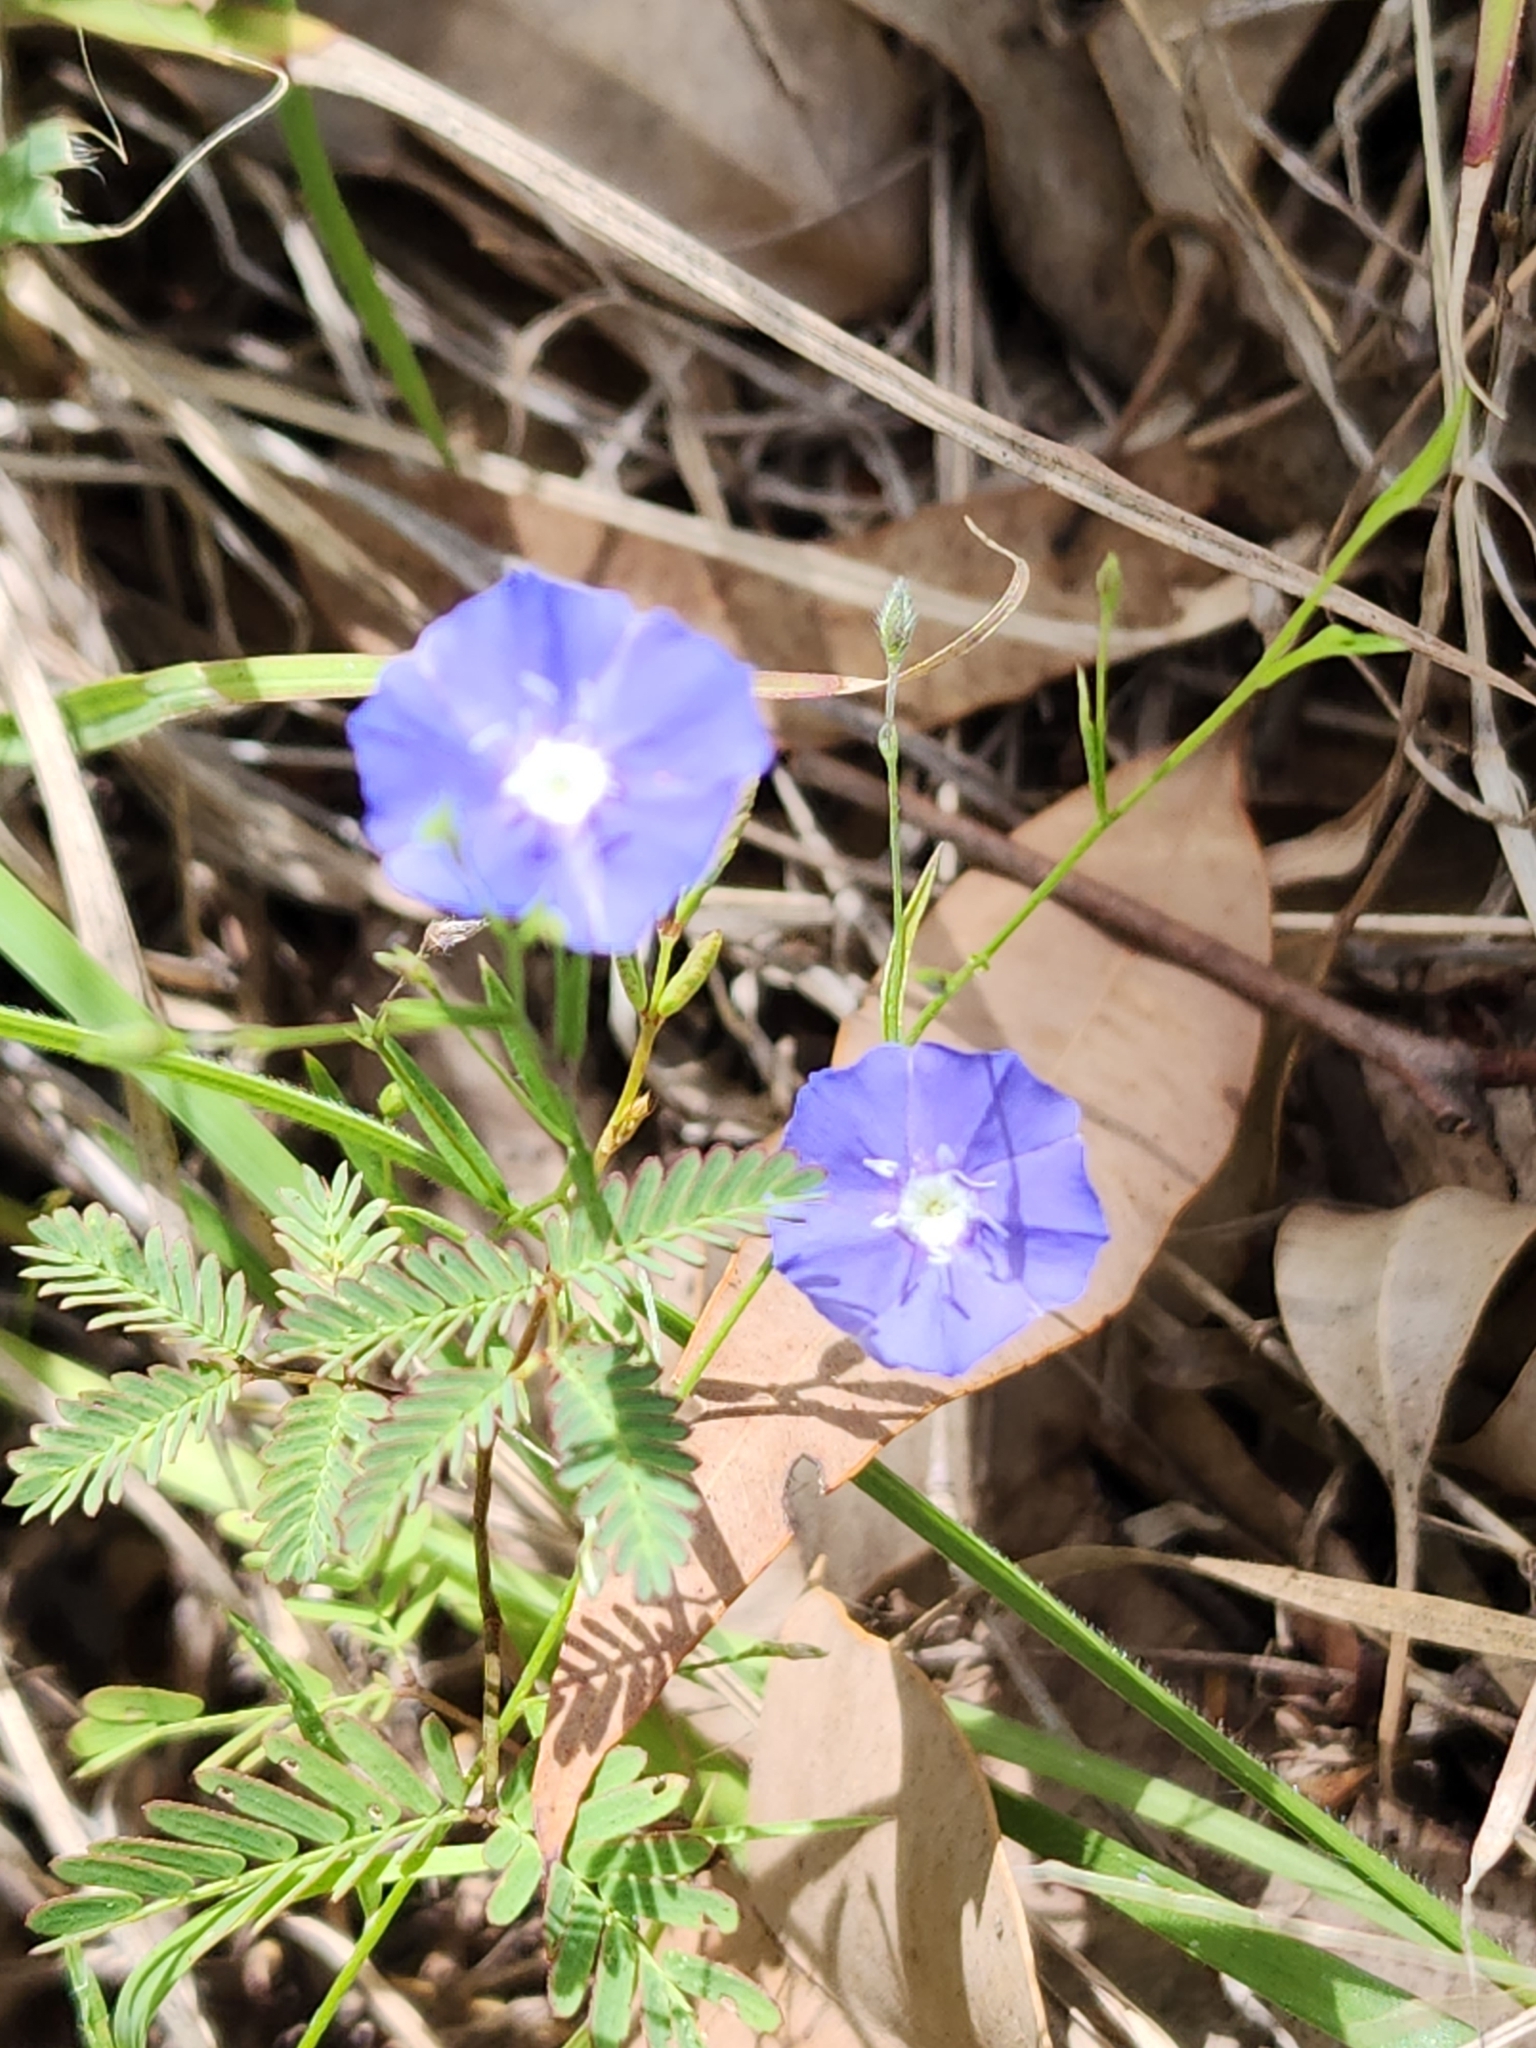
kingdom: Plantae
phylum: Tracheophyta
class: Magnoliopsida
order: Solanales
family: Convolvulaceae
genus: Evolvulus
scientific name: Evolvulus alsinoides
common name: Slender dwarf morning-glory
